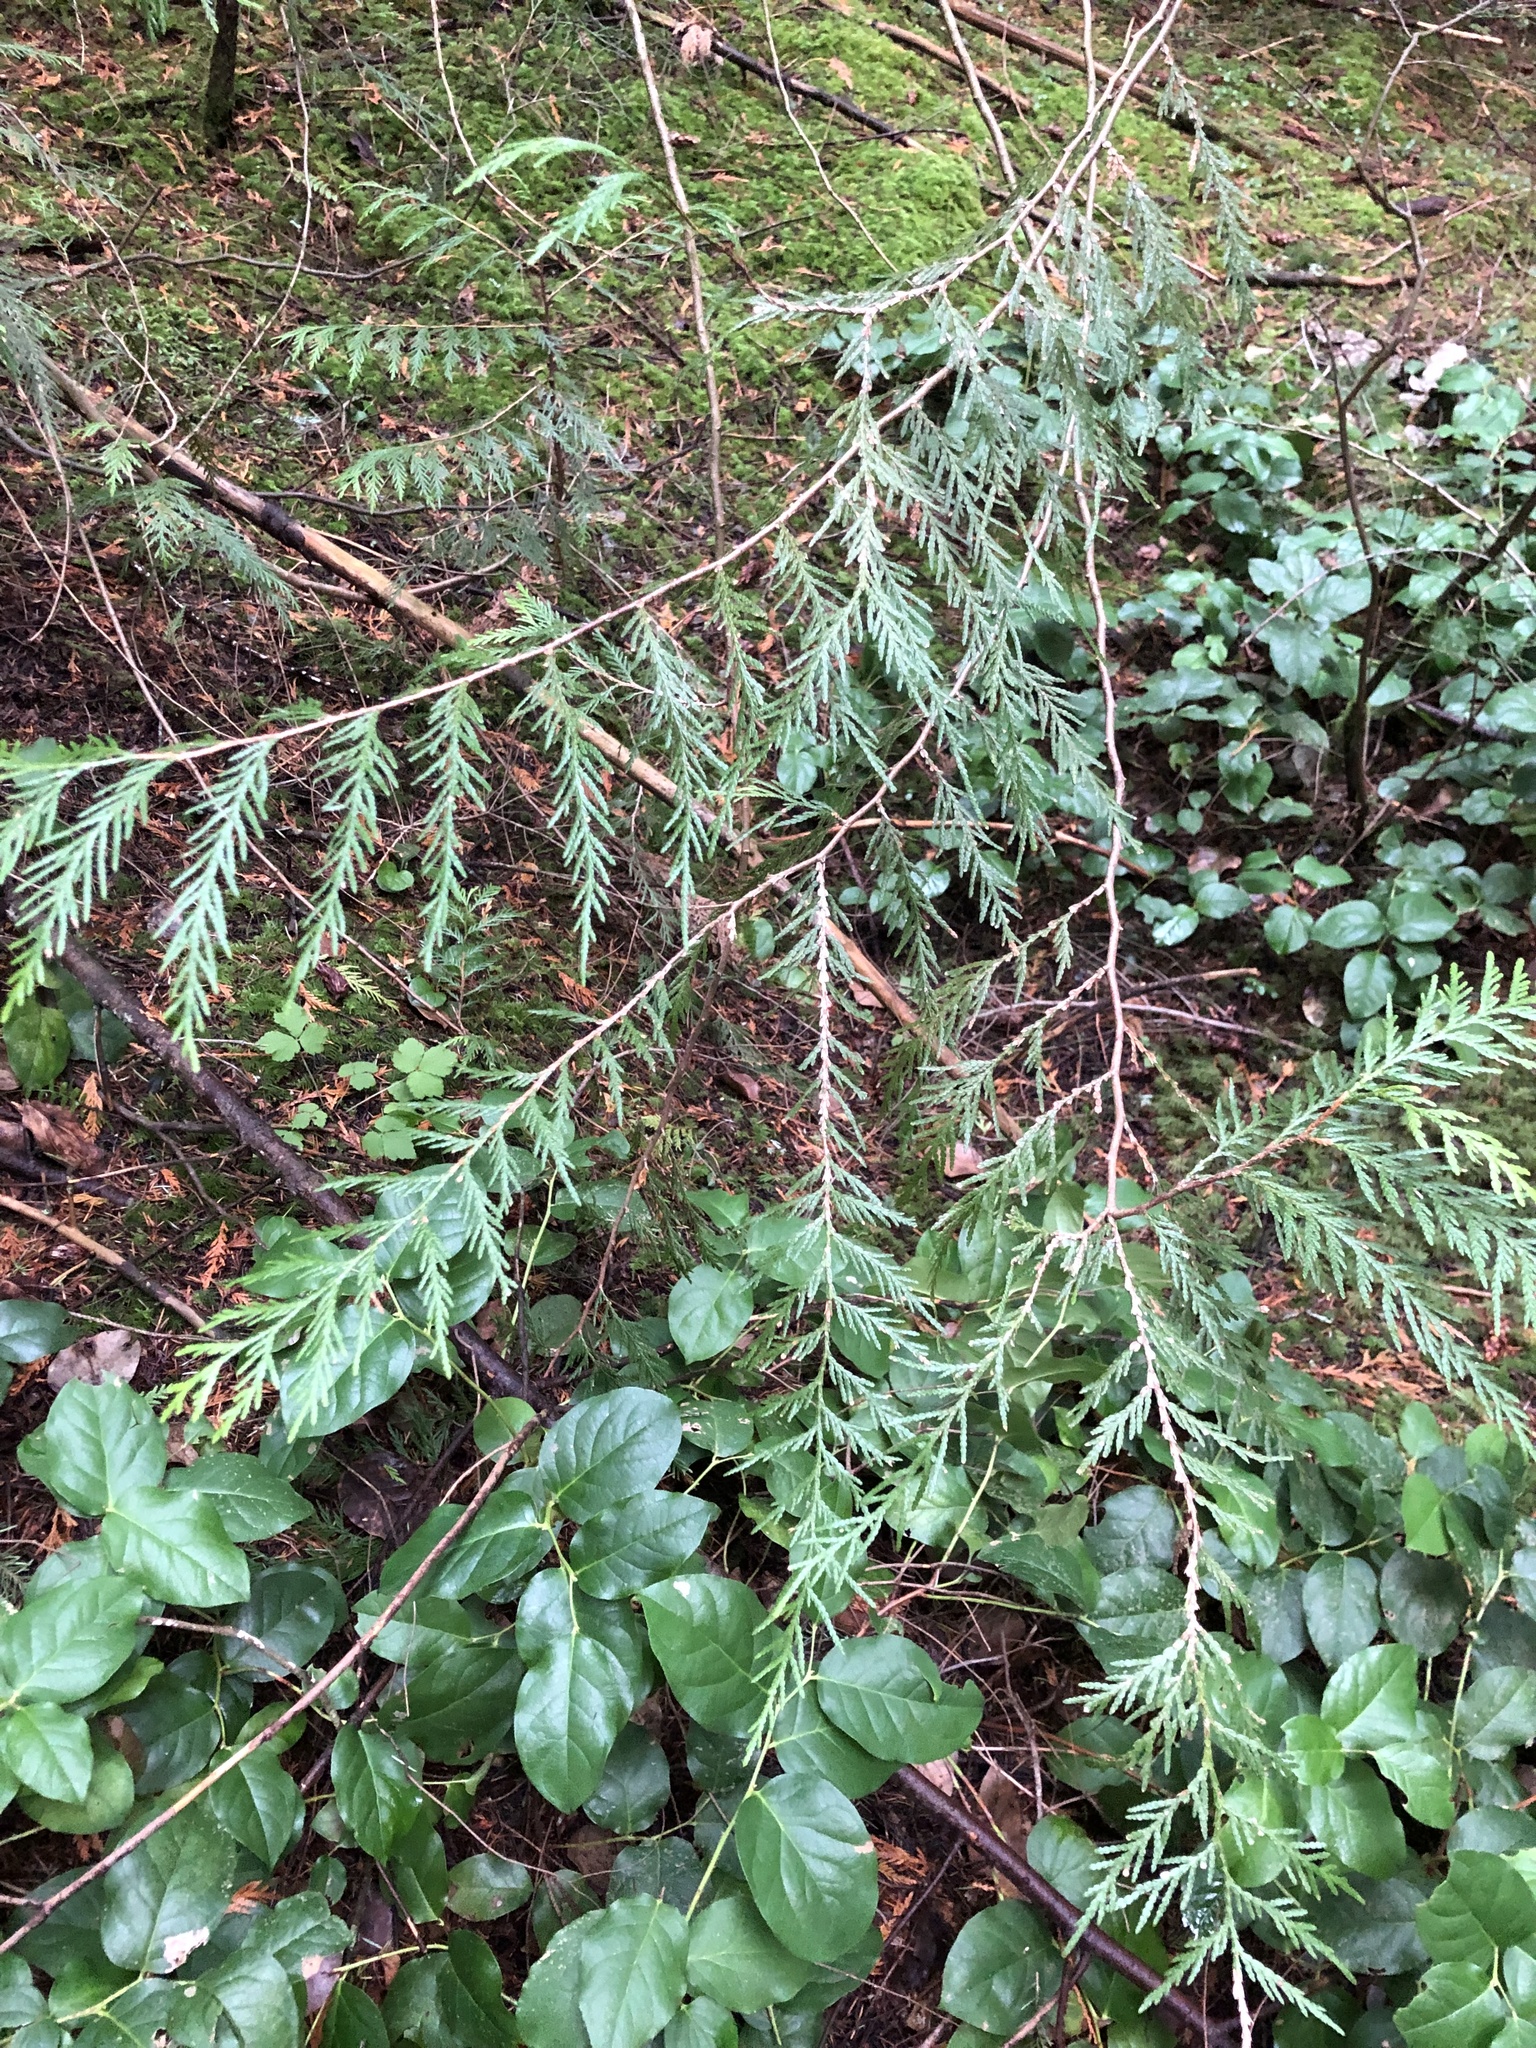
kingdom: Plantae
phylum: Tracheophyta
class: Pinopsida
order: Pinales
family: Cupressaceae
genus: Thuja
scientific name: Thuja plicata
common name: Western red-cedar
